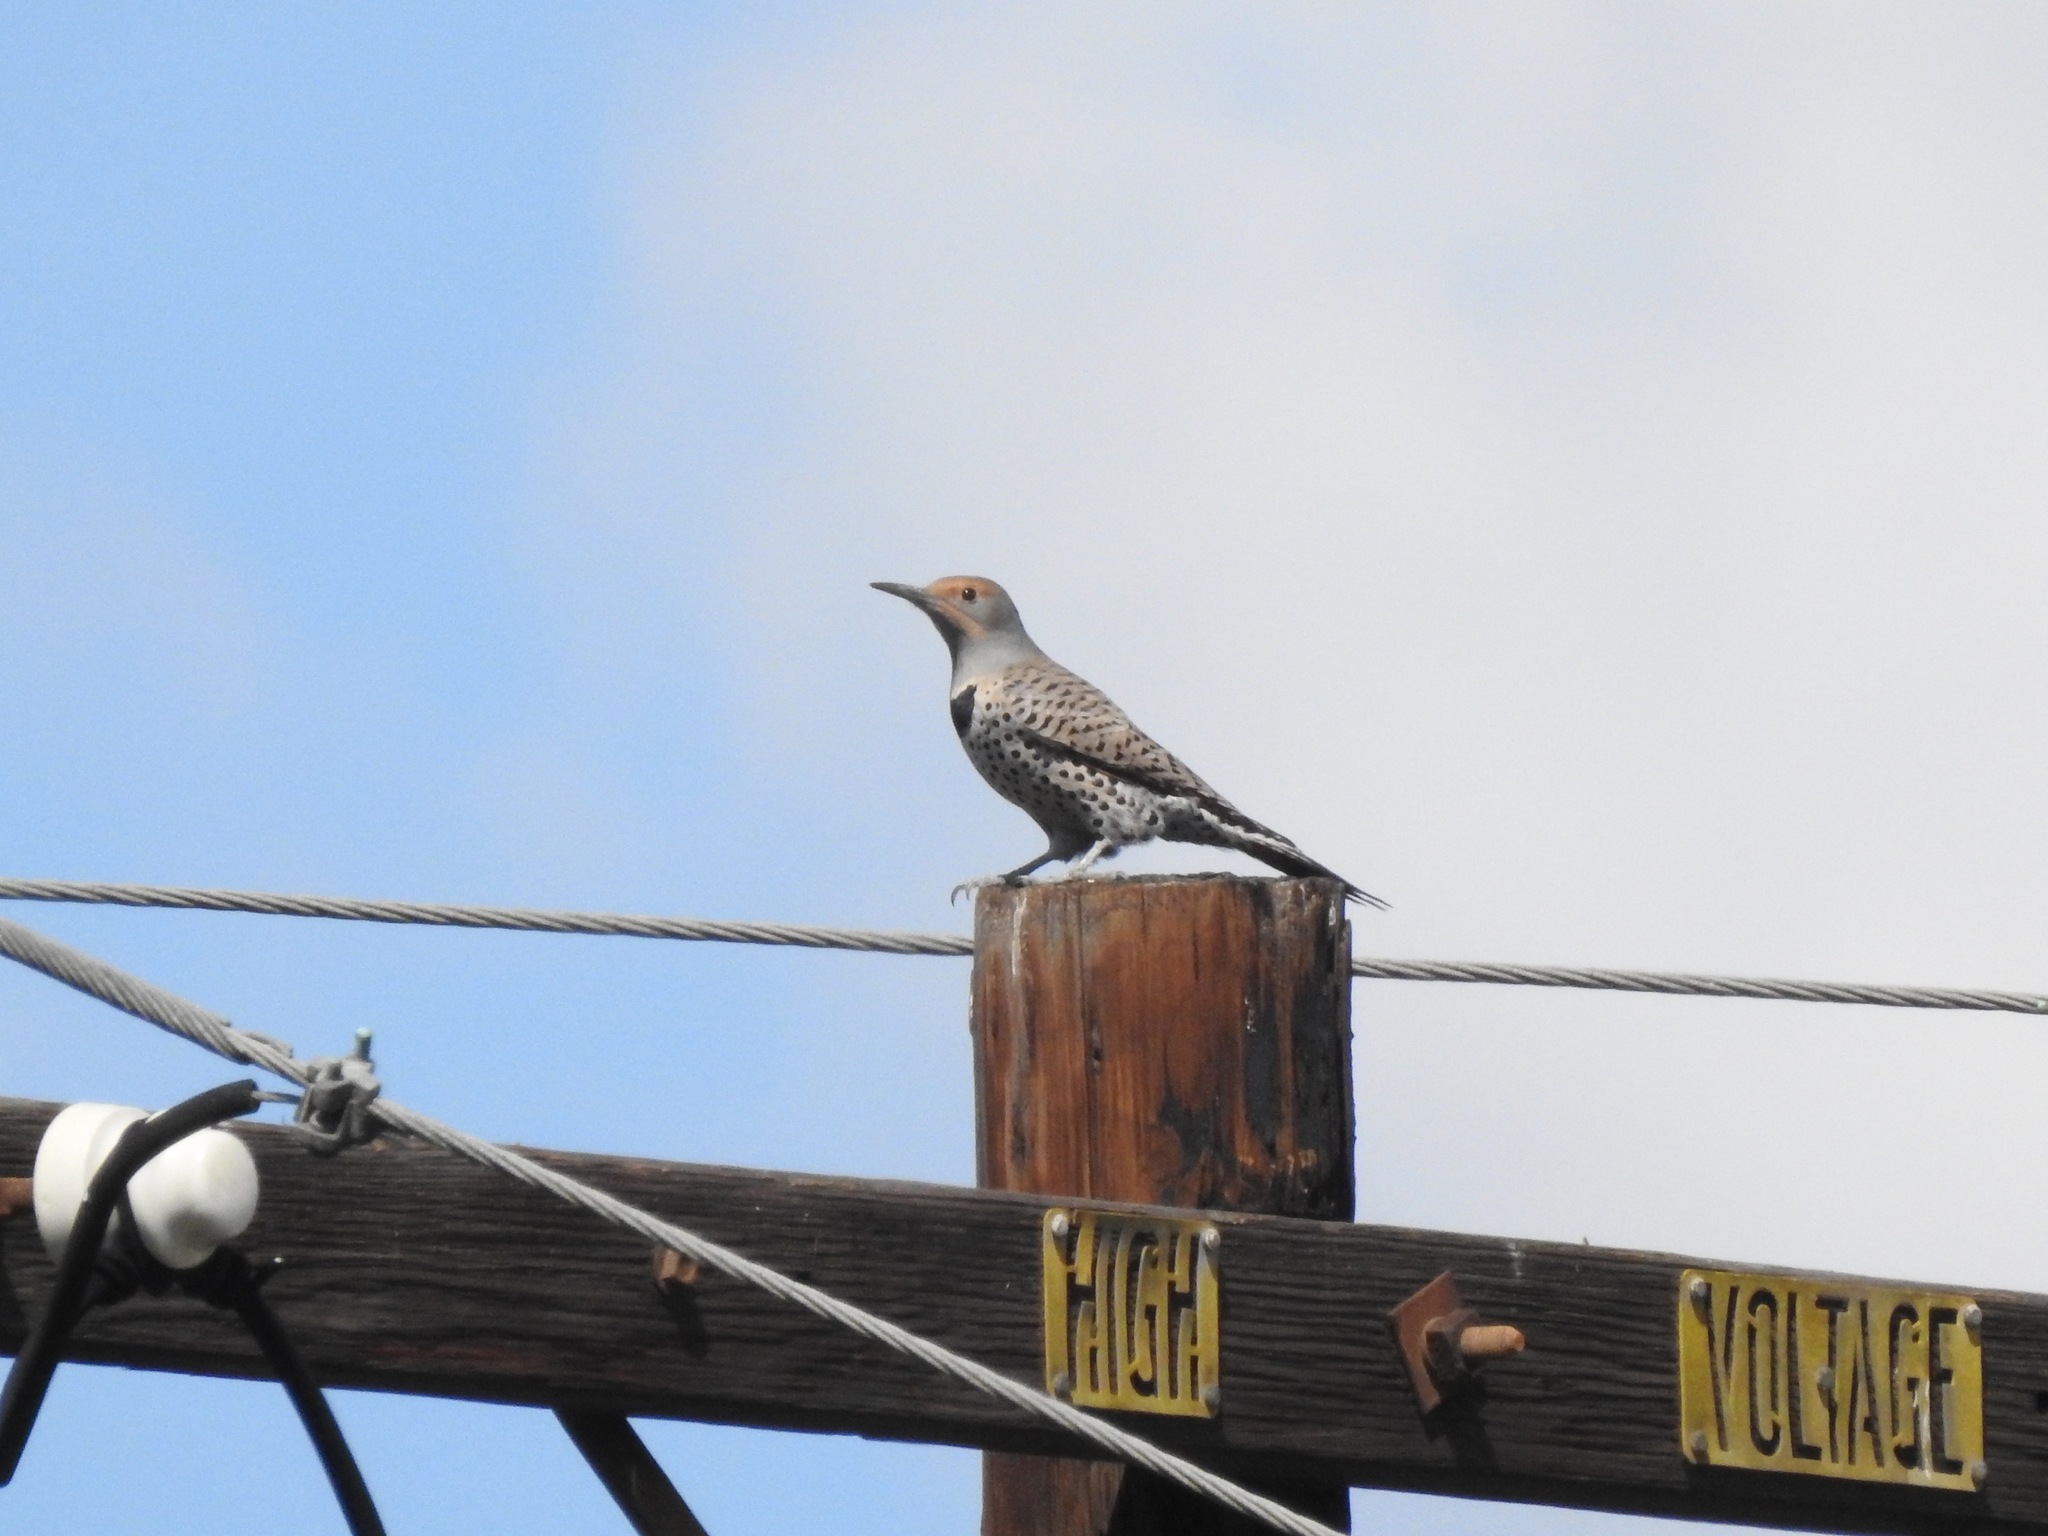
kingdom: Animalia
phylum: Chordata
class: Aves
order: Piciformes
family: Picidae
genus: Colaptes
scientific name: Colaptes auratus
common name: Northern flicker
